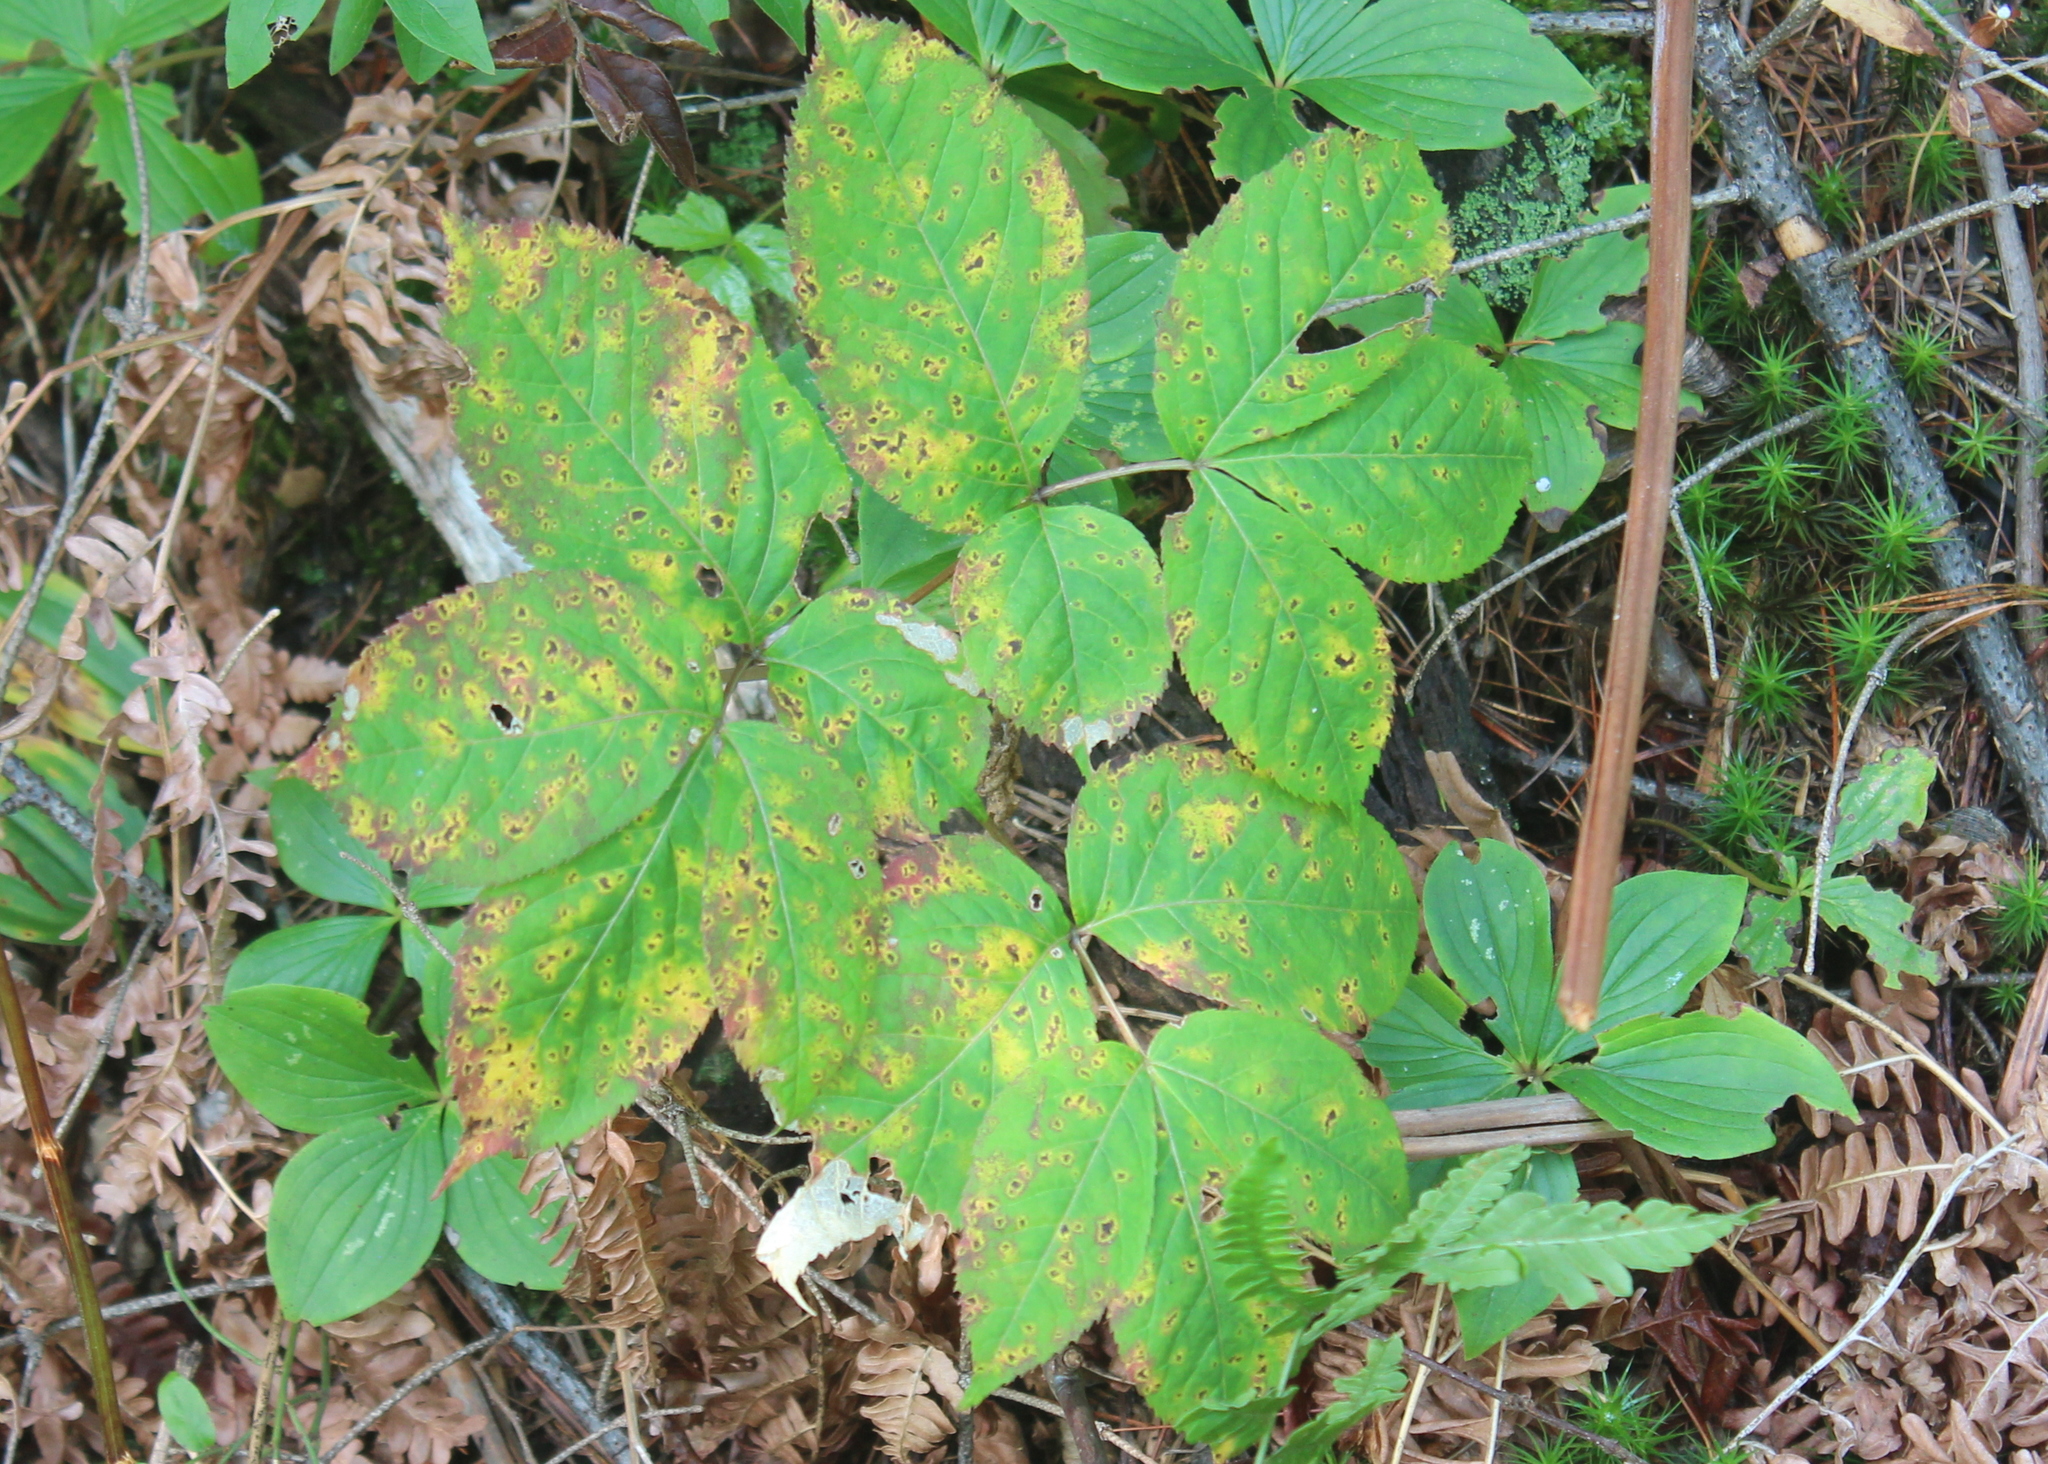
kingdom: Plantae
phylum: Tracheophyta
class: Magnoliopsida
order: Apiales
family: Araliaceae
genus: Aralia
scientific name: Aralia nudicaulis
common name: Wild sarsaparilla
